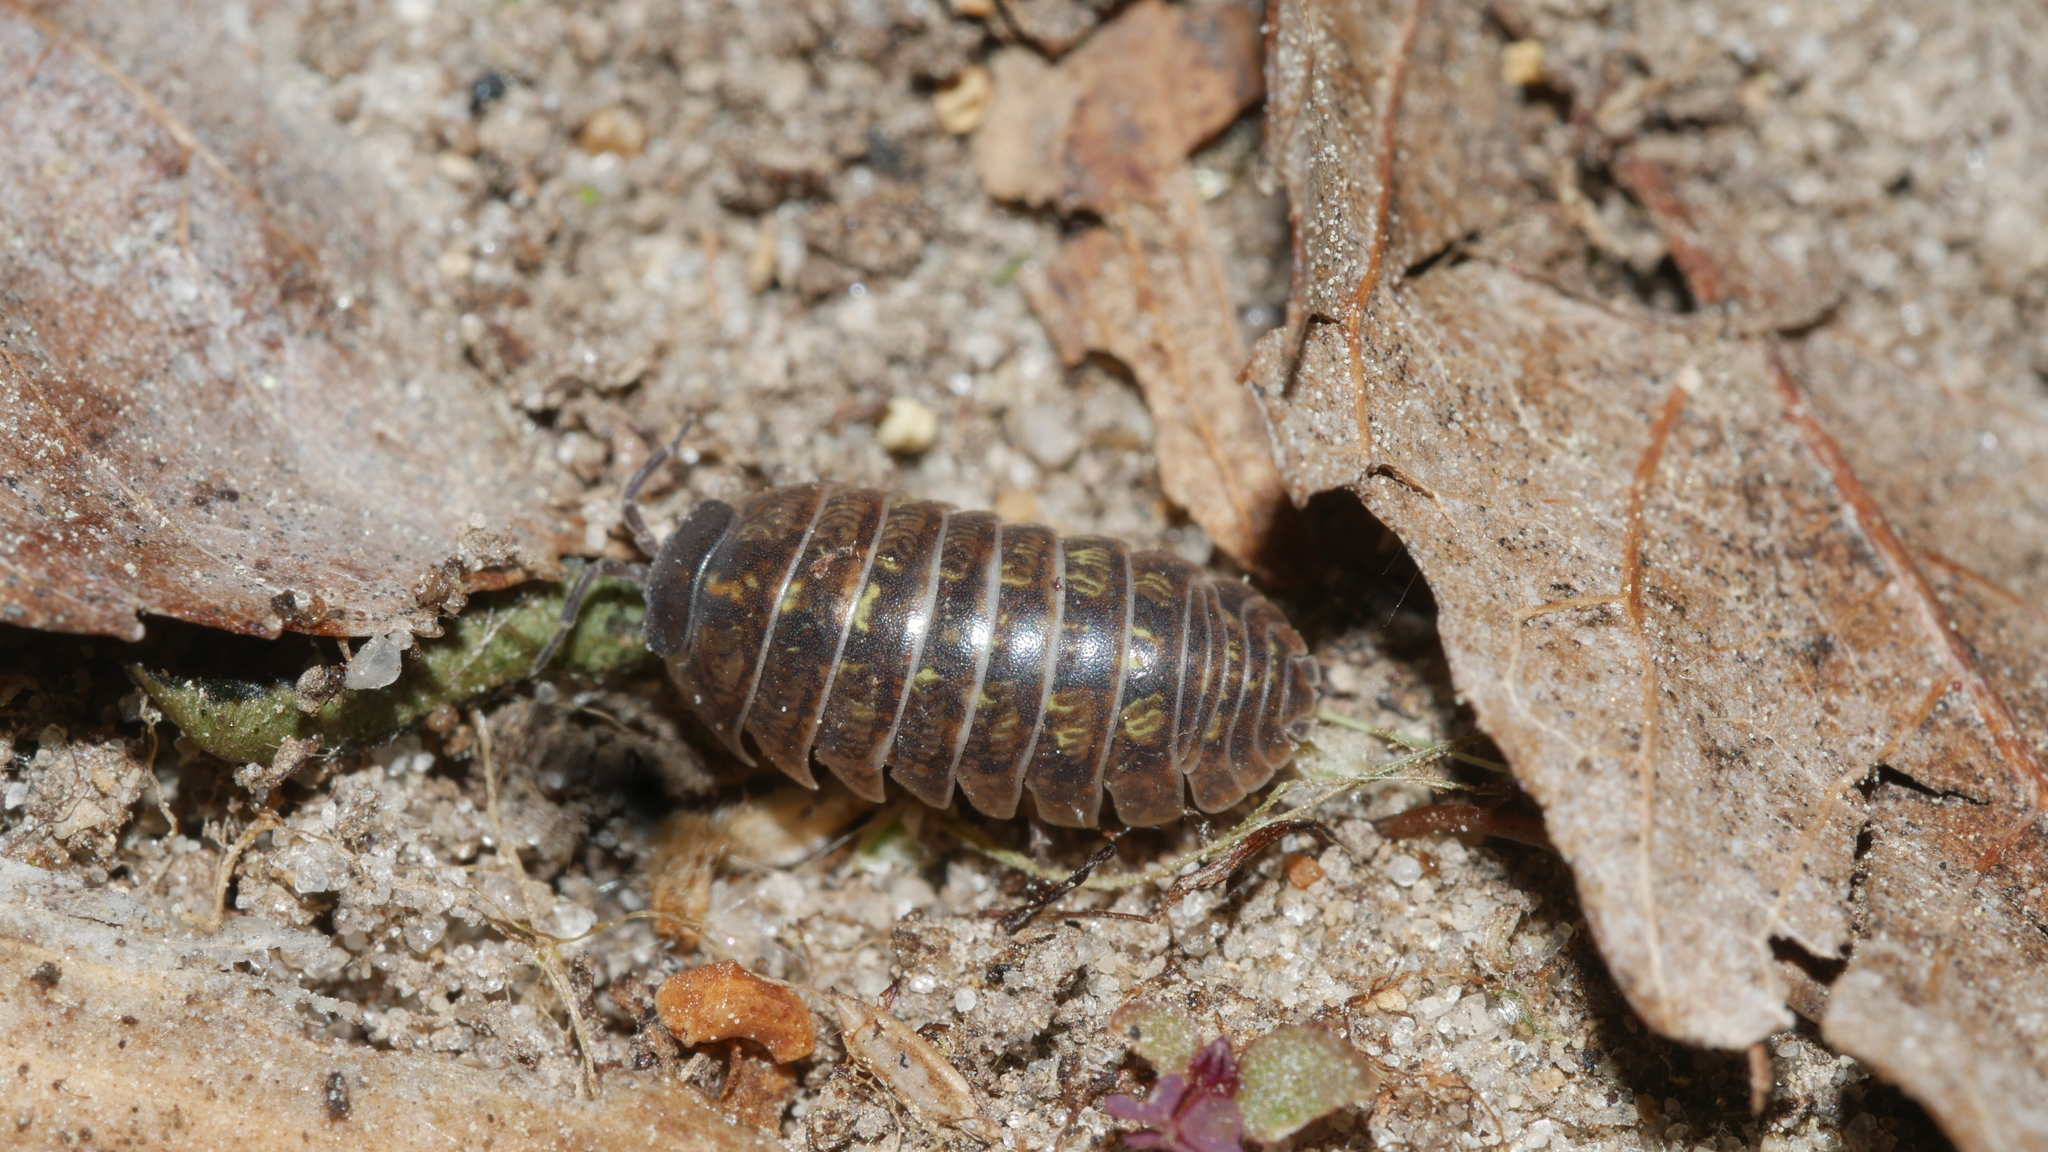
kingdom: Animalia
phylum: Arthropoda
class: Malacostraca
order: Isopoda
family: Armadillidiidae
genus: Armadillidium
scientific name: Armadillidium vulgare
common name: Common pill woodlouse
